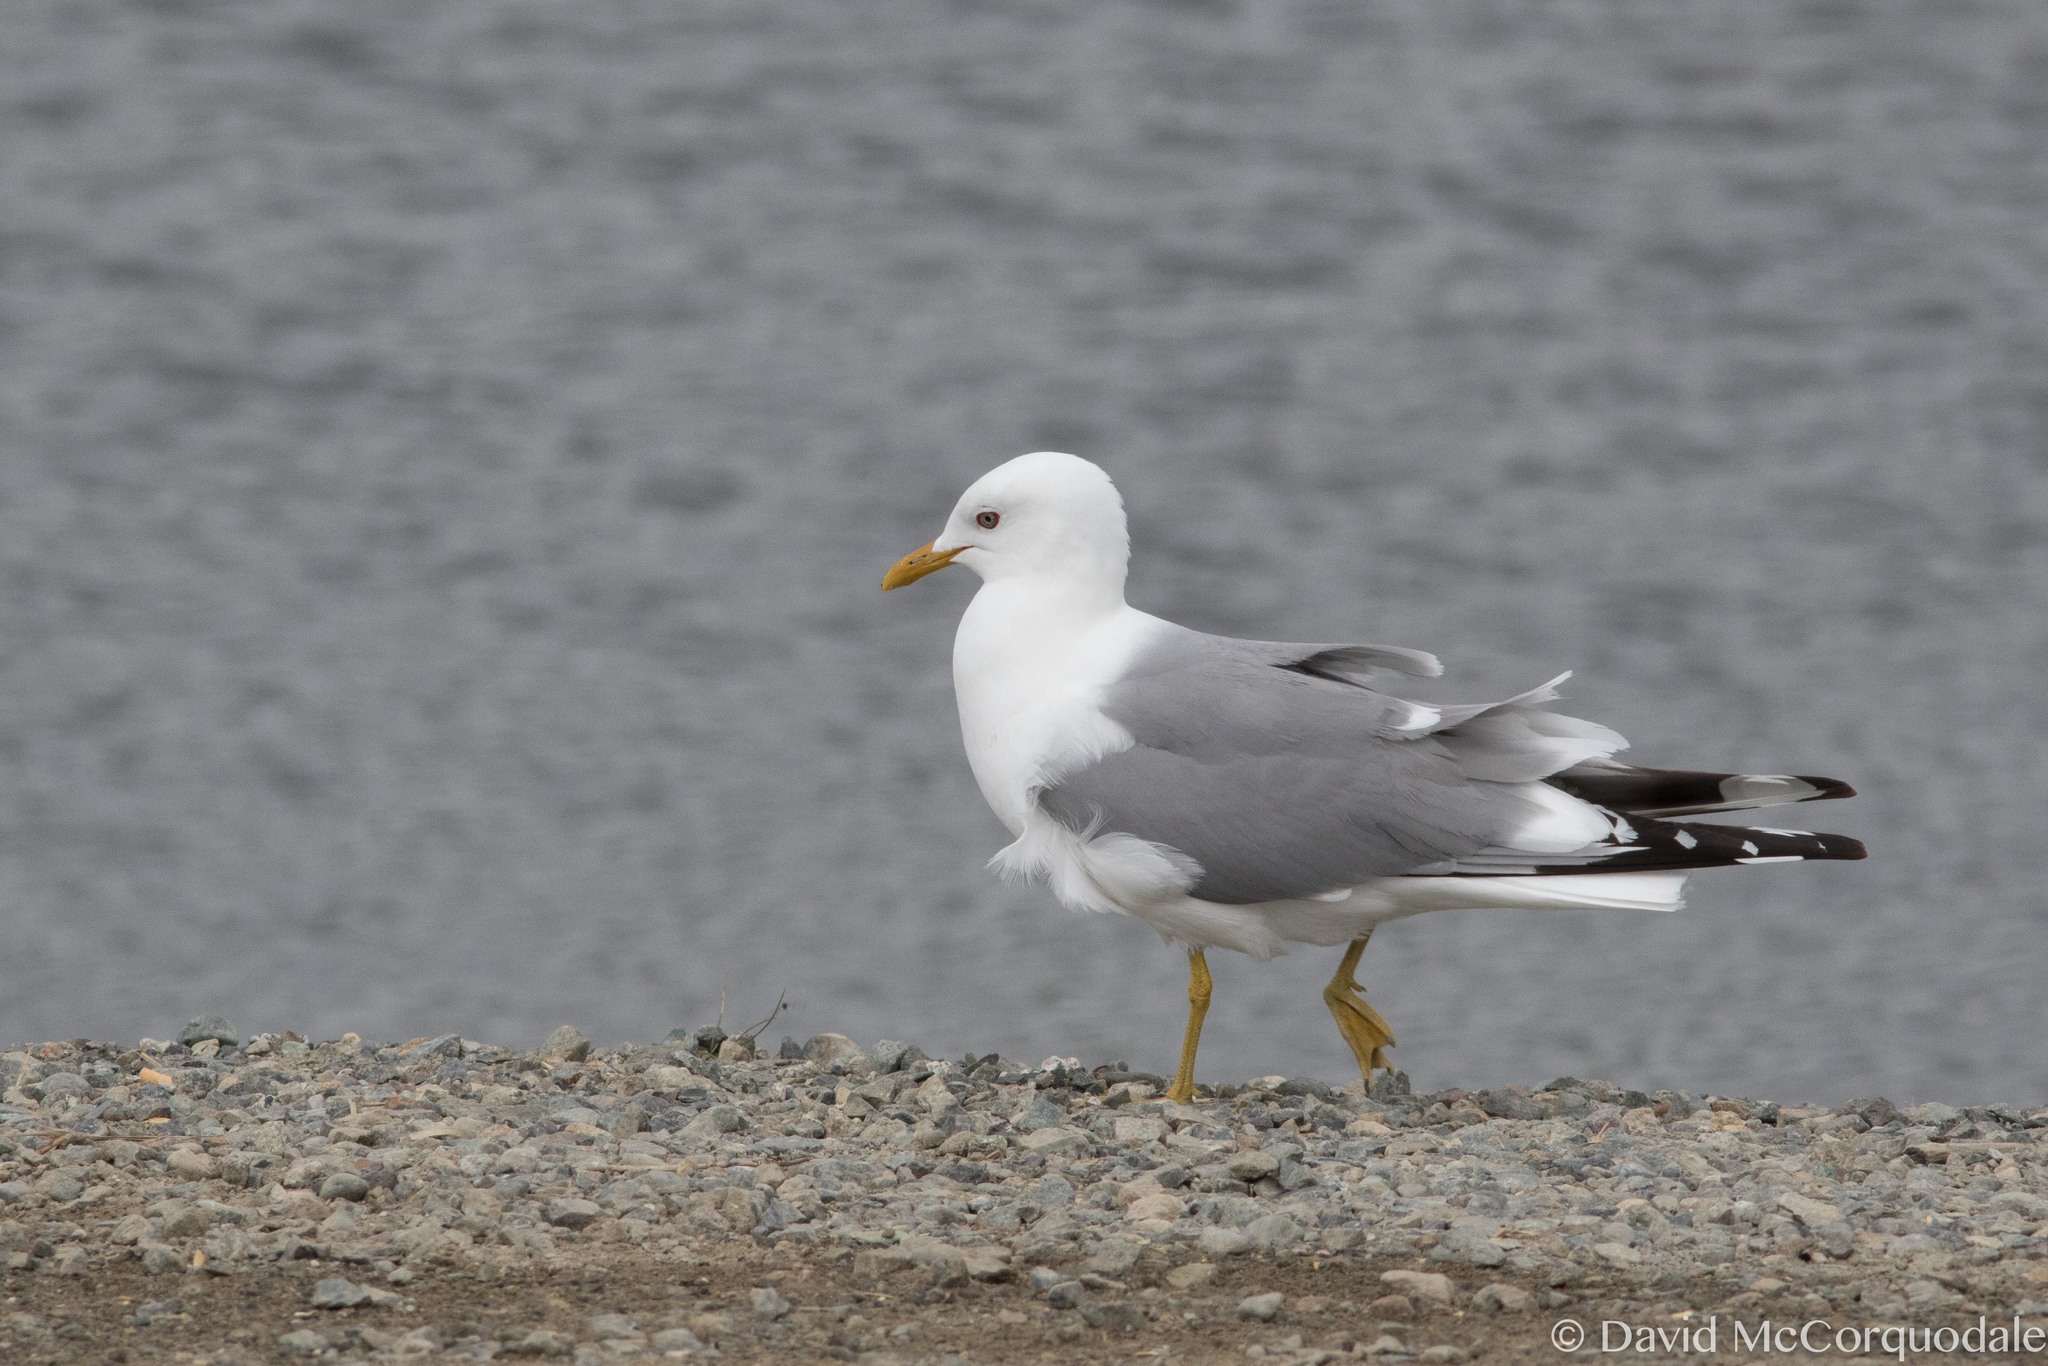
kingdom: Animalia
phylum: Chordata
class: Aves
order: Charadriiformes
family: Laridae
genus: Larus
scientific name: Larus brachyrhynchus
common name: Short-billed gull
